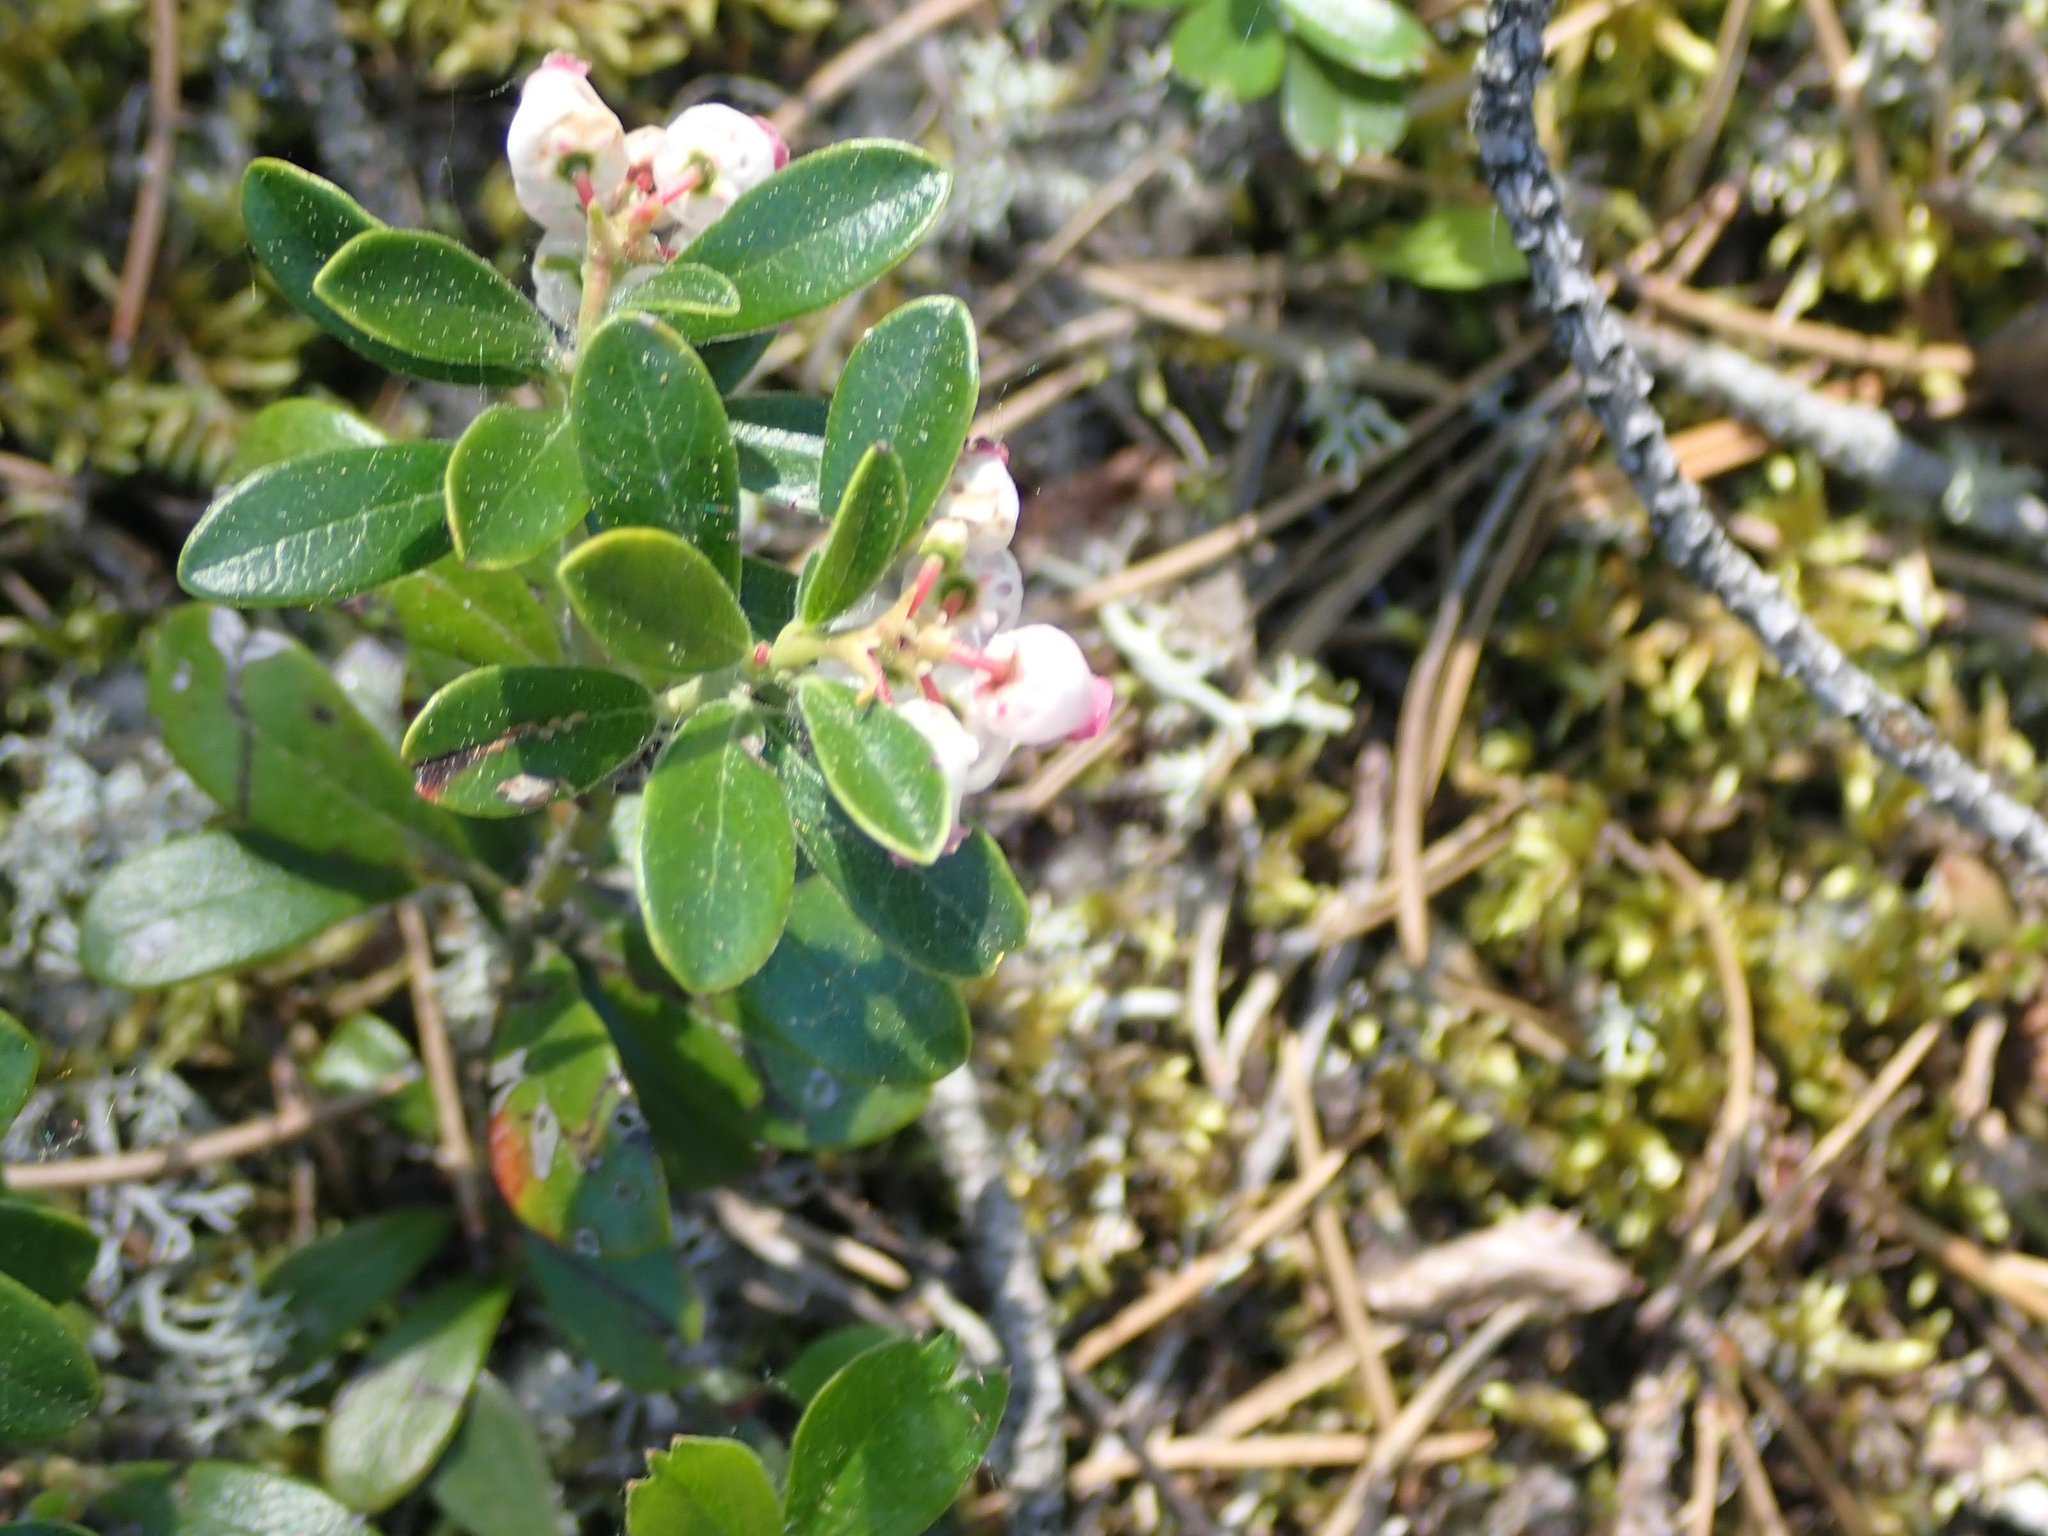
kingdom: Plantae
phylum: Tracheophyta
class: Magnoliopsida
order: Ericales
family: Ericaceae
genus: Arctostaphylos
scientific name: Arctostaphylos uva-ursi
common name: Bearberry
